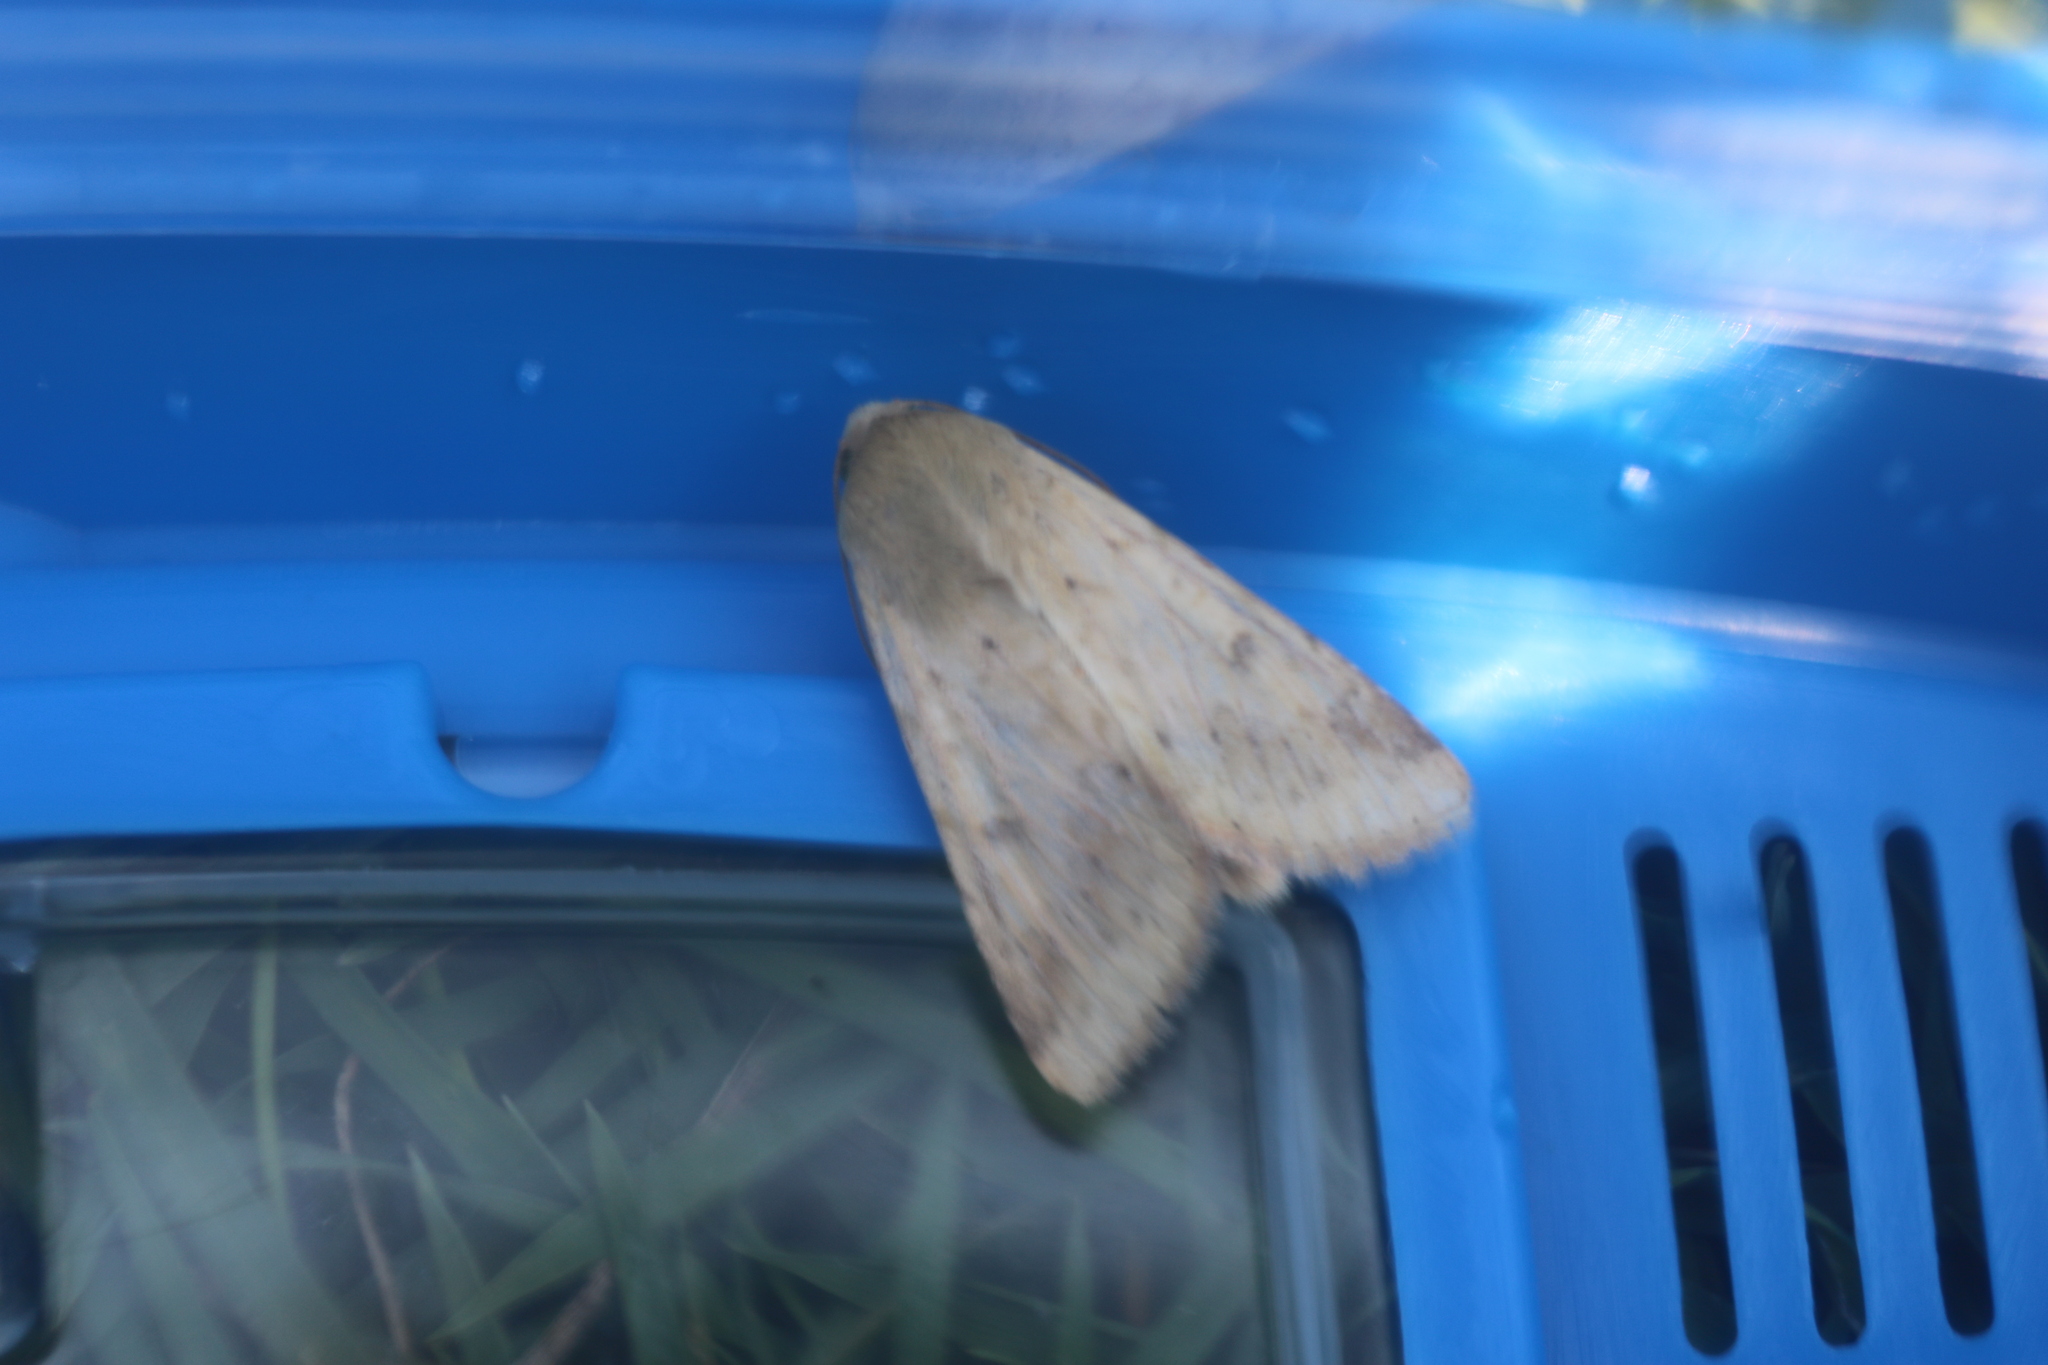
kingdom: Animalia
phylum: Arthropoda
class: Insecta
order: Lepidoptera
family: Noctuidae
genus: Helicoverpa
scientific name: Helicoverpa zea
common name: Bollworm
